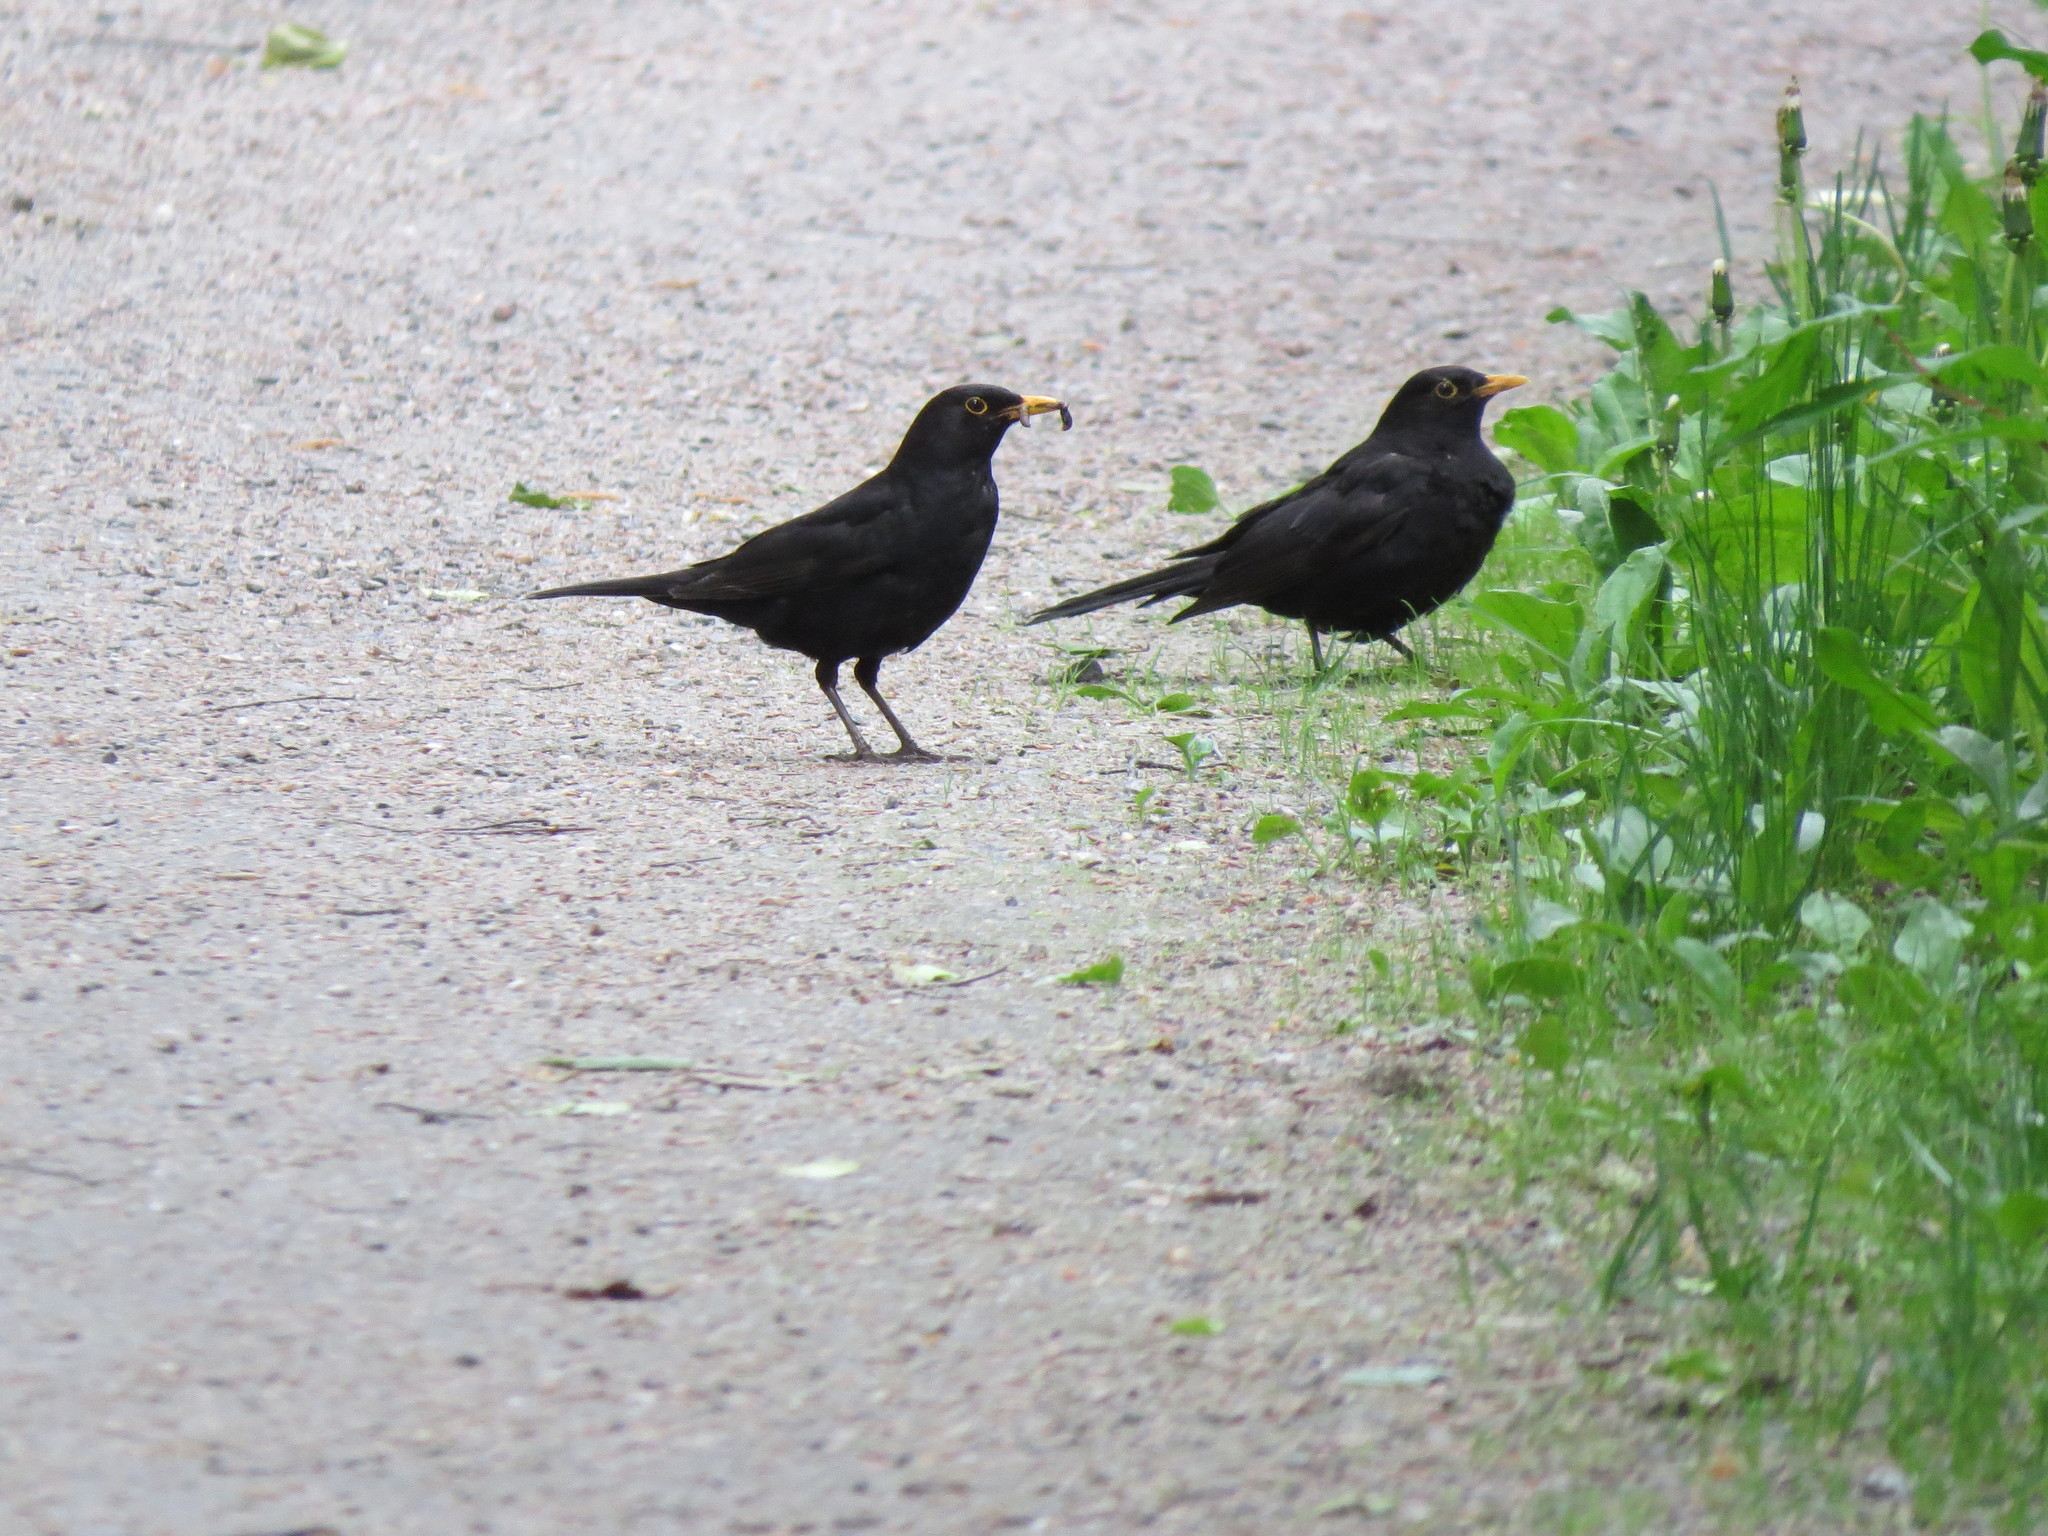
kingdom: Animalia
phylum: Chordata
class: Aves
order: Passeriformes
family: Turdidae
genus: Turdus
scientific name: Turdus merula
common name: Common blackbird
